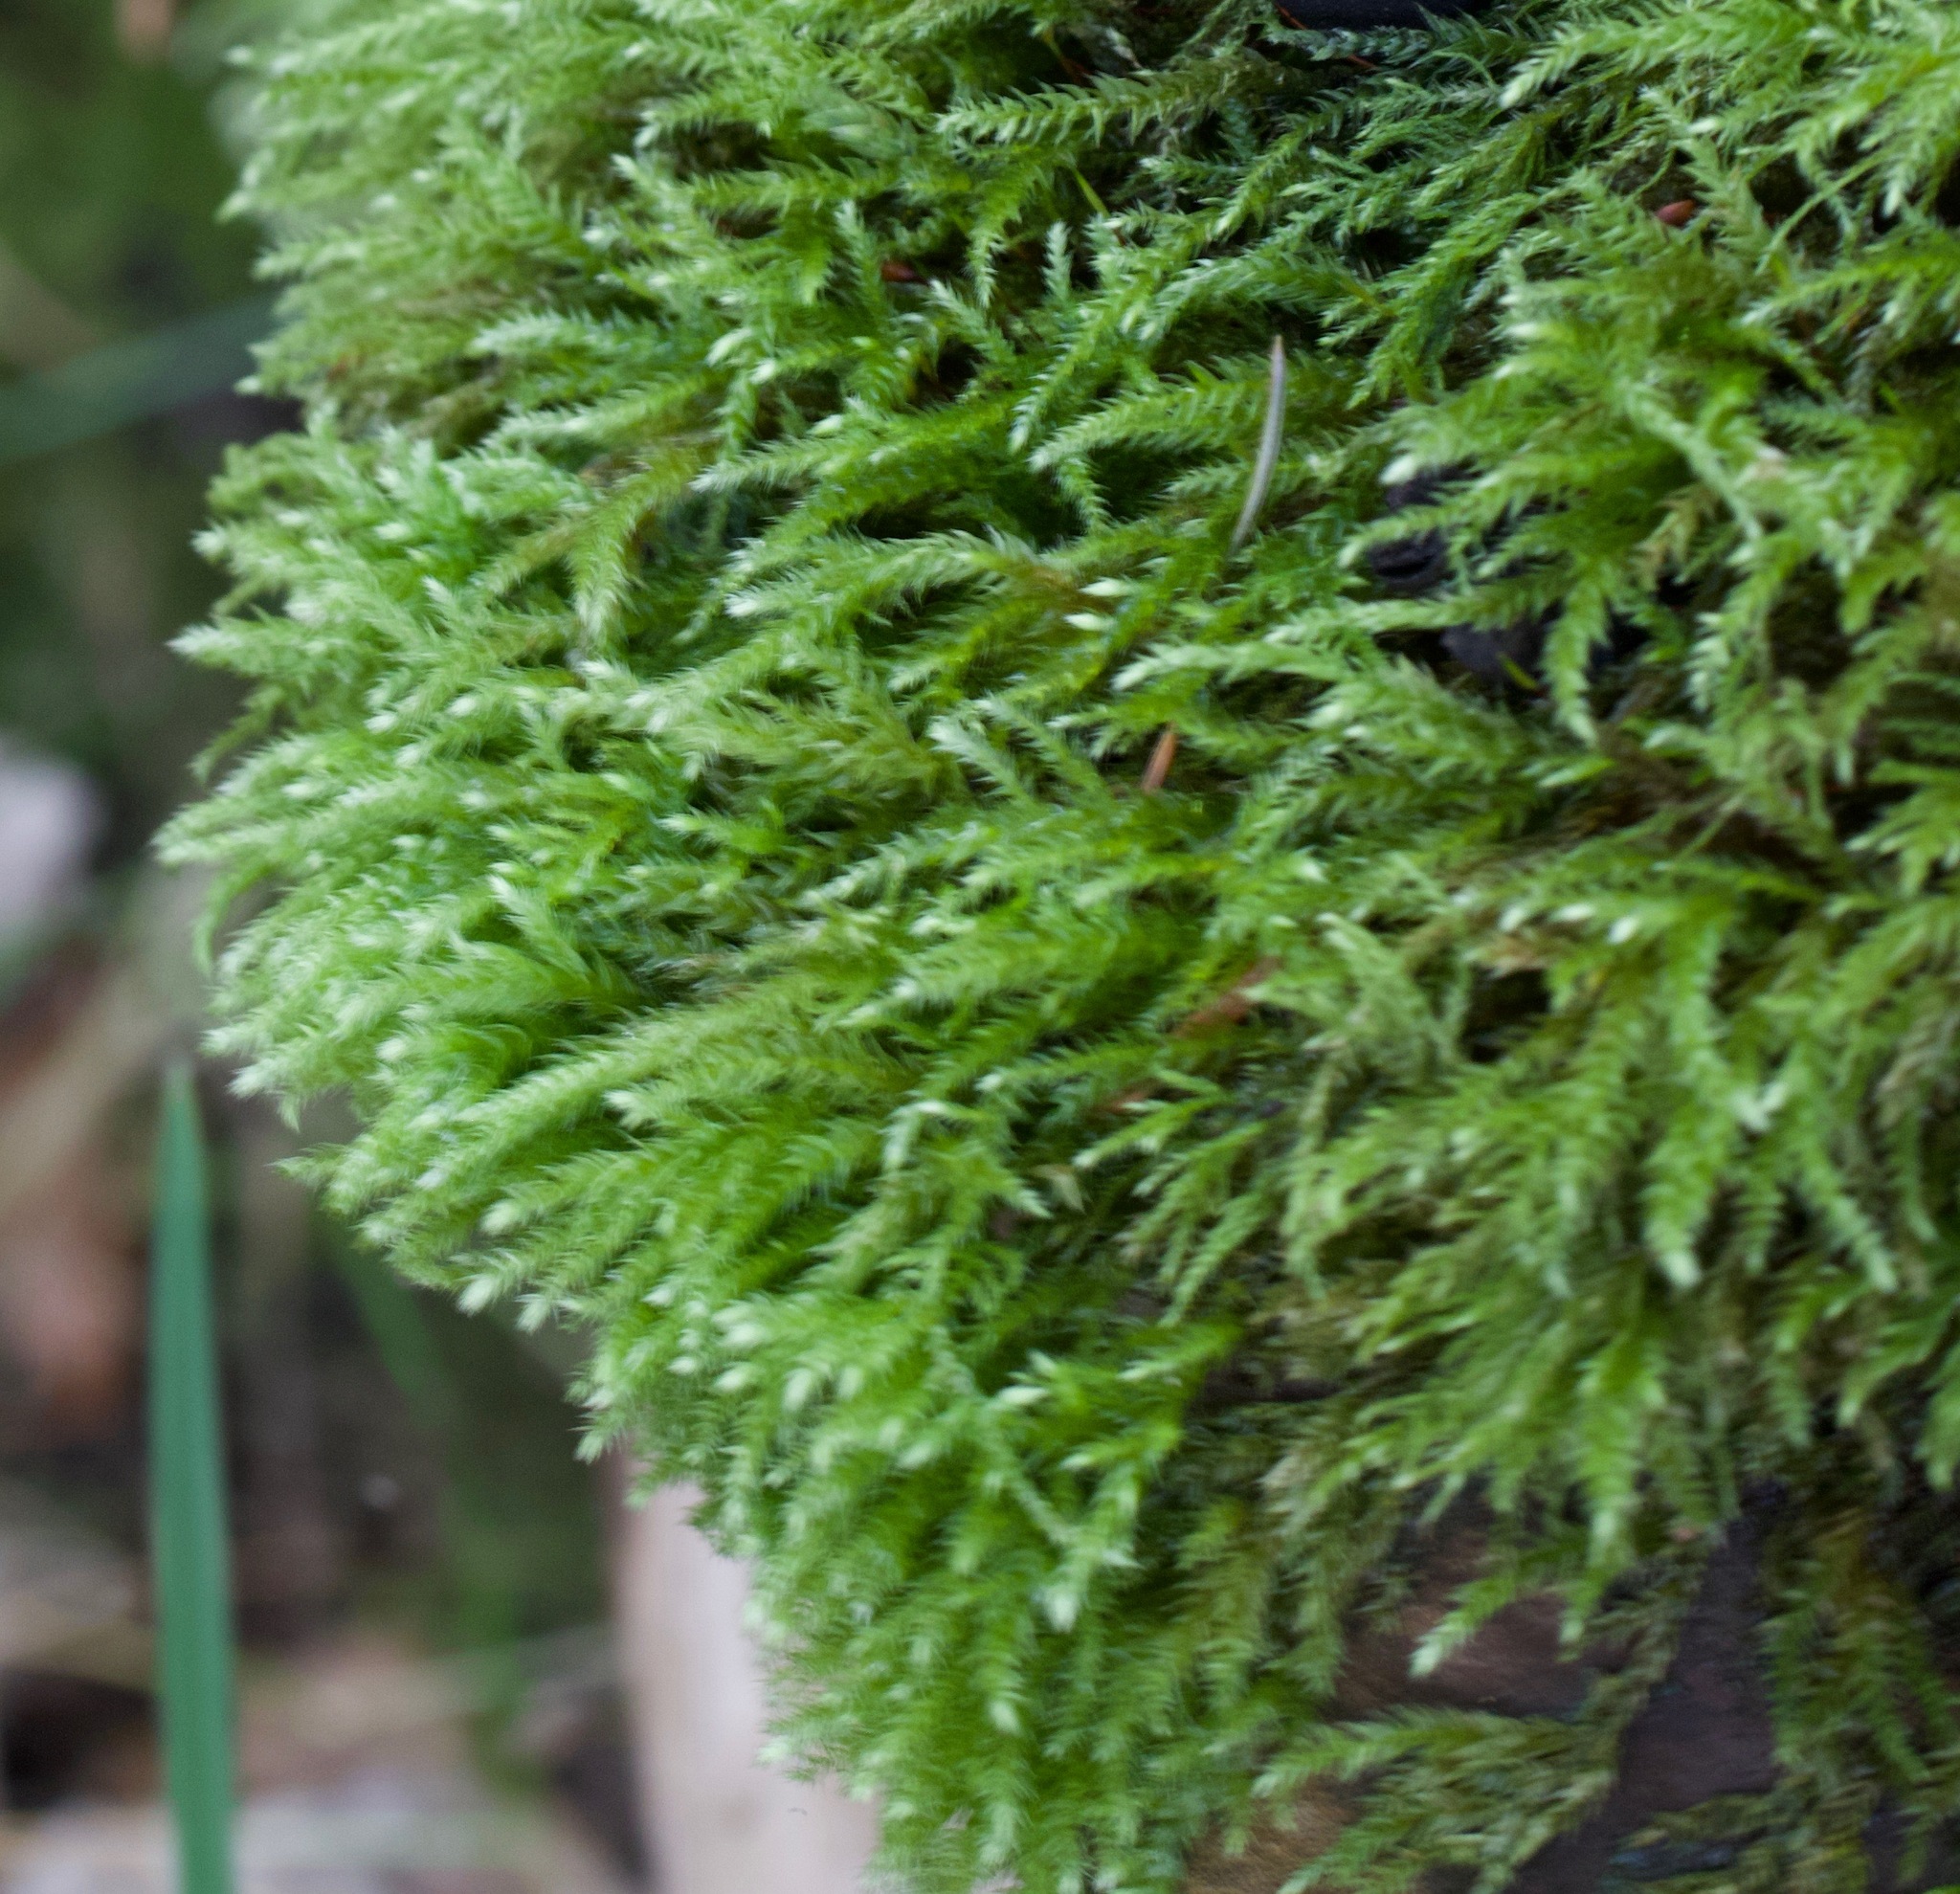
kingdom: Plantae
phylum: Bryophyta
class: Bryopsida
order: Hypnales
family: Brachytheciaceae
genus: Brachythecium
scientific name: Brachythecium rutabulum
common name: Rough-stalked feather-moss
